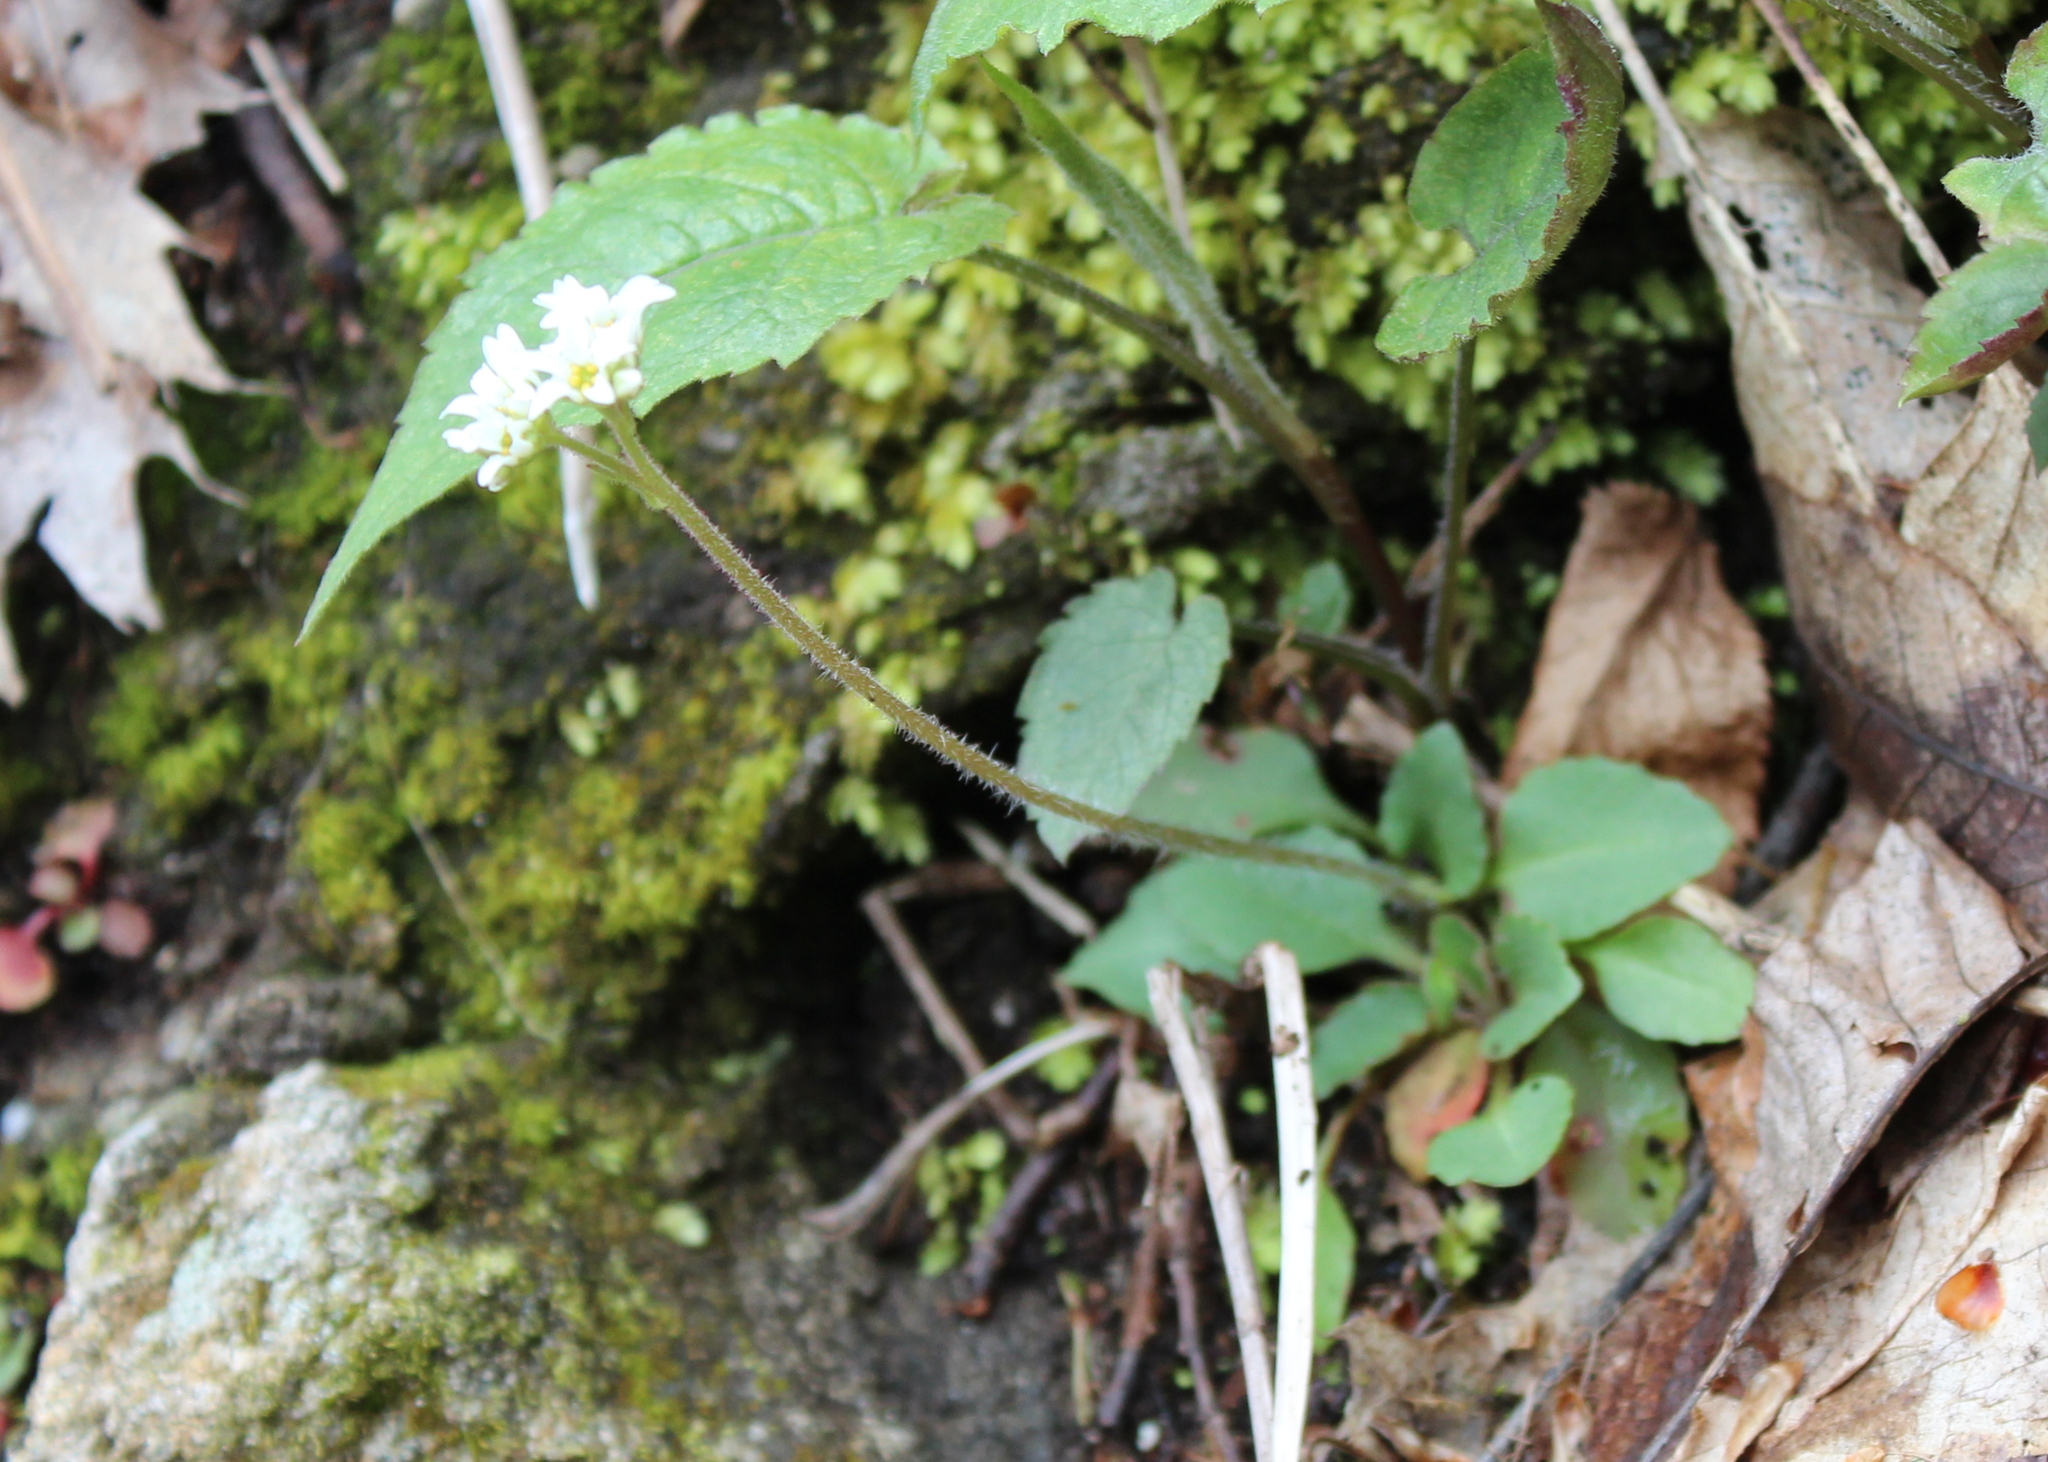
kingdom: Plantae
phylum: Tracheophyta
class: Magnoliopsida
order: Saxifragales
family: Saxifragaceae
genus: Micranthes
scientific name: Micranthes virginiensis
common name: Early saxifrage
